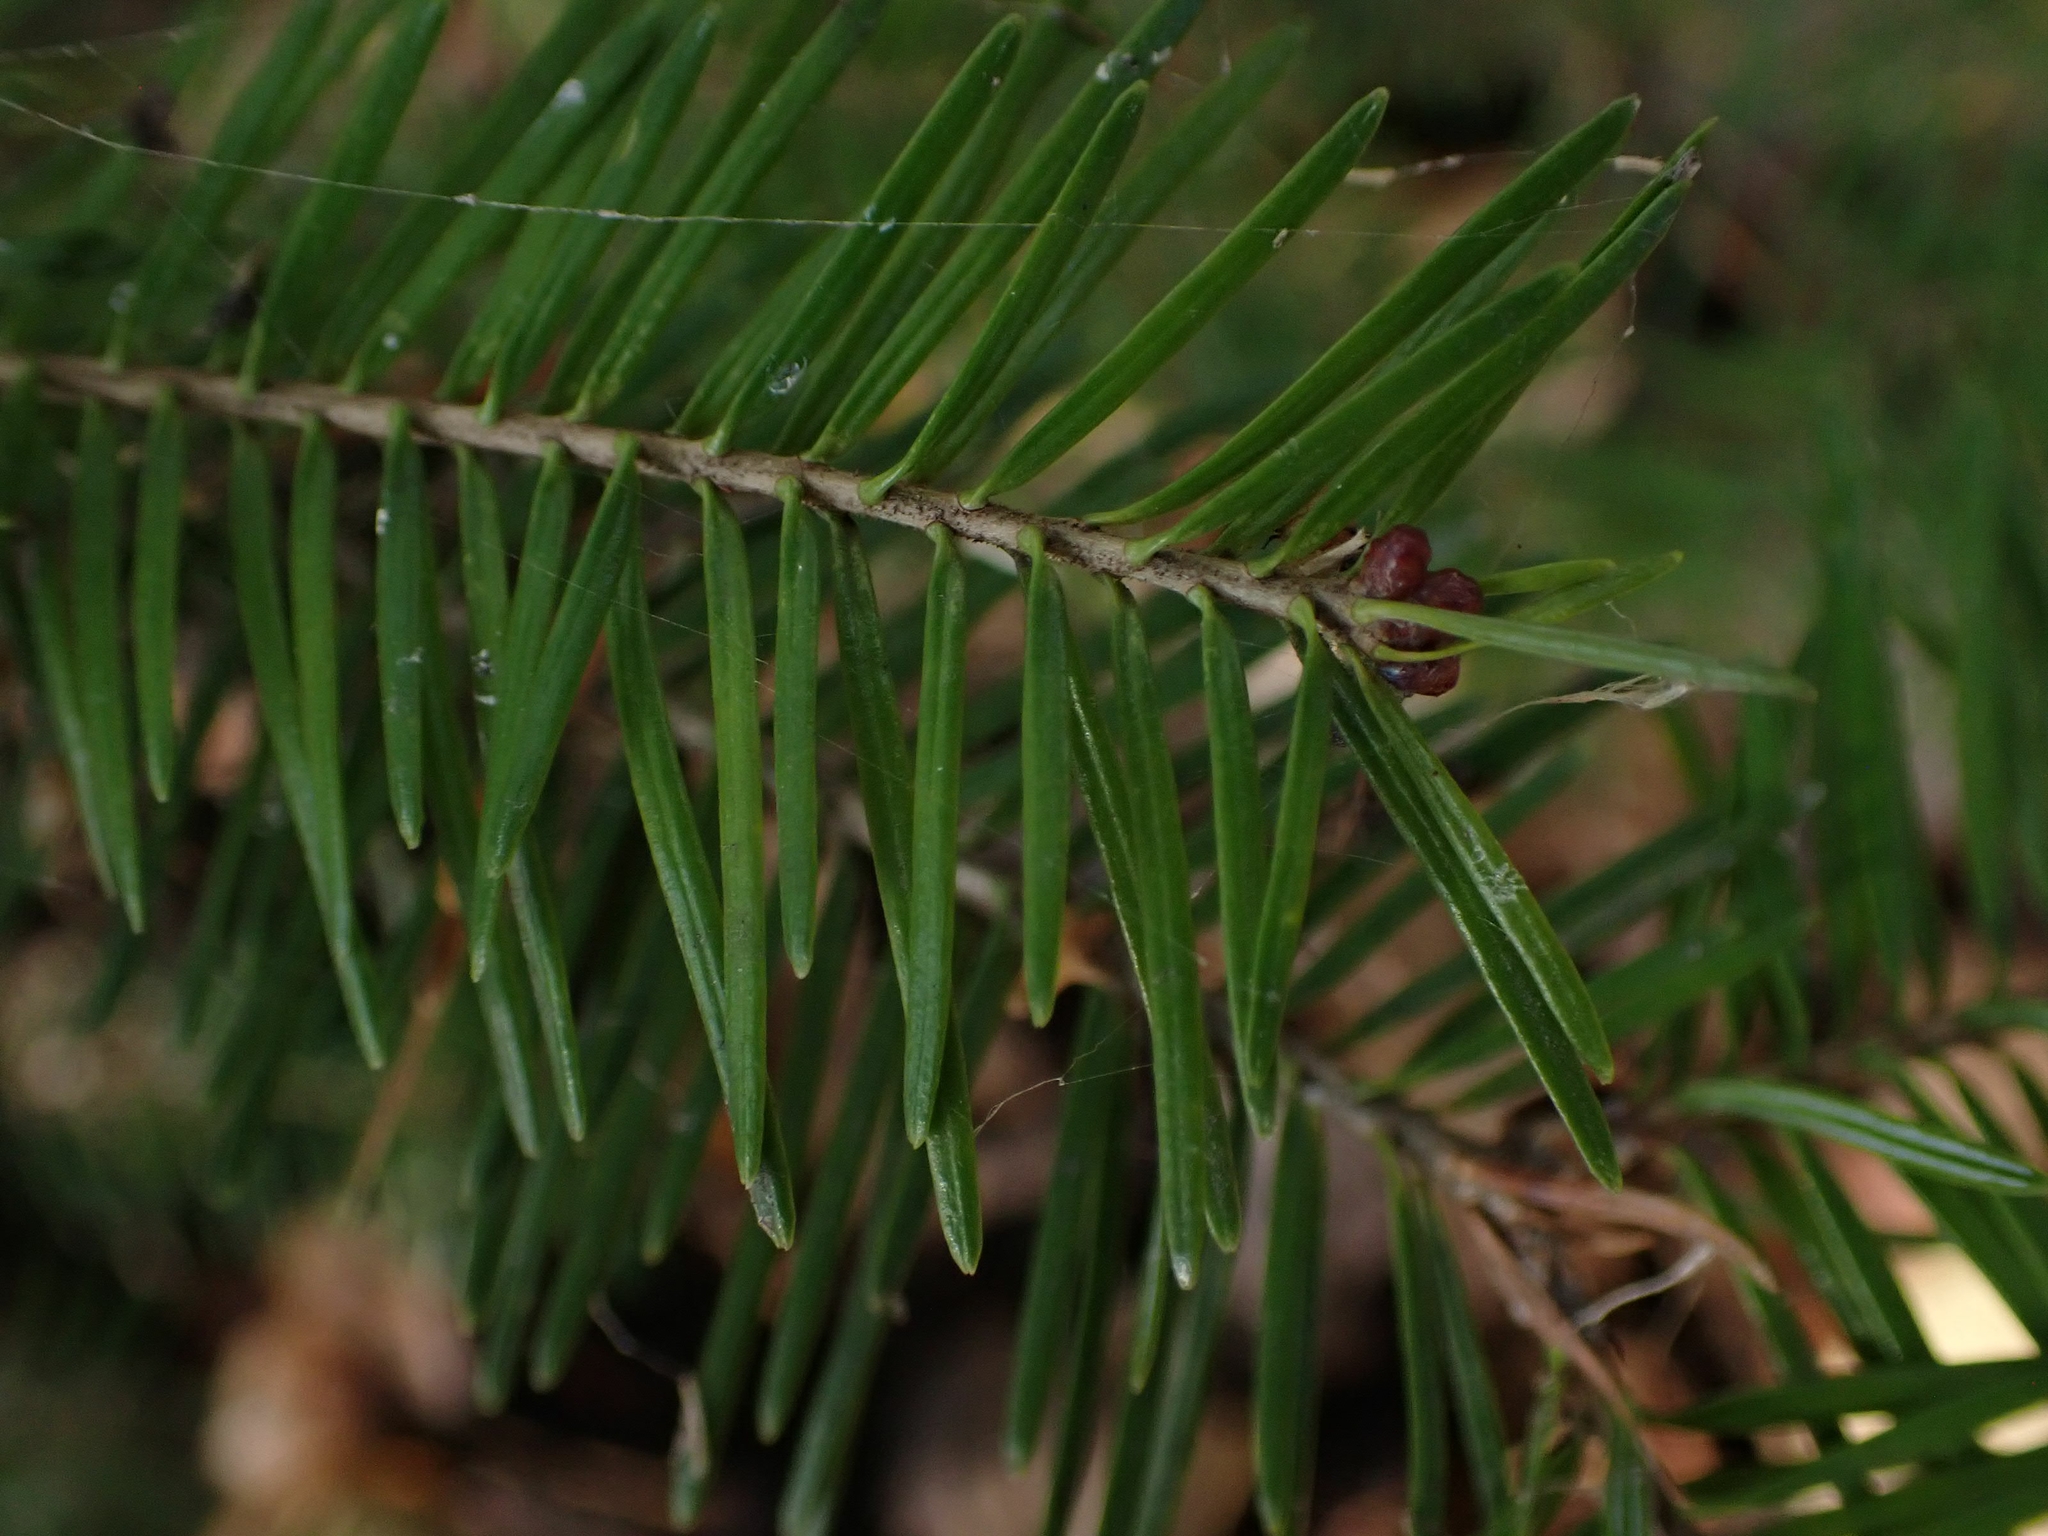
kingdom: Plantae
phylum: Tracheophyta
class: Pinopsida
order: Pinales
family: Pinaceae
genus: Abies
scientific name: Abies balsamea
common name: Balsam fir
